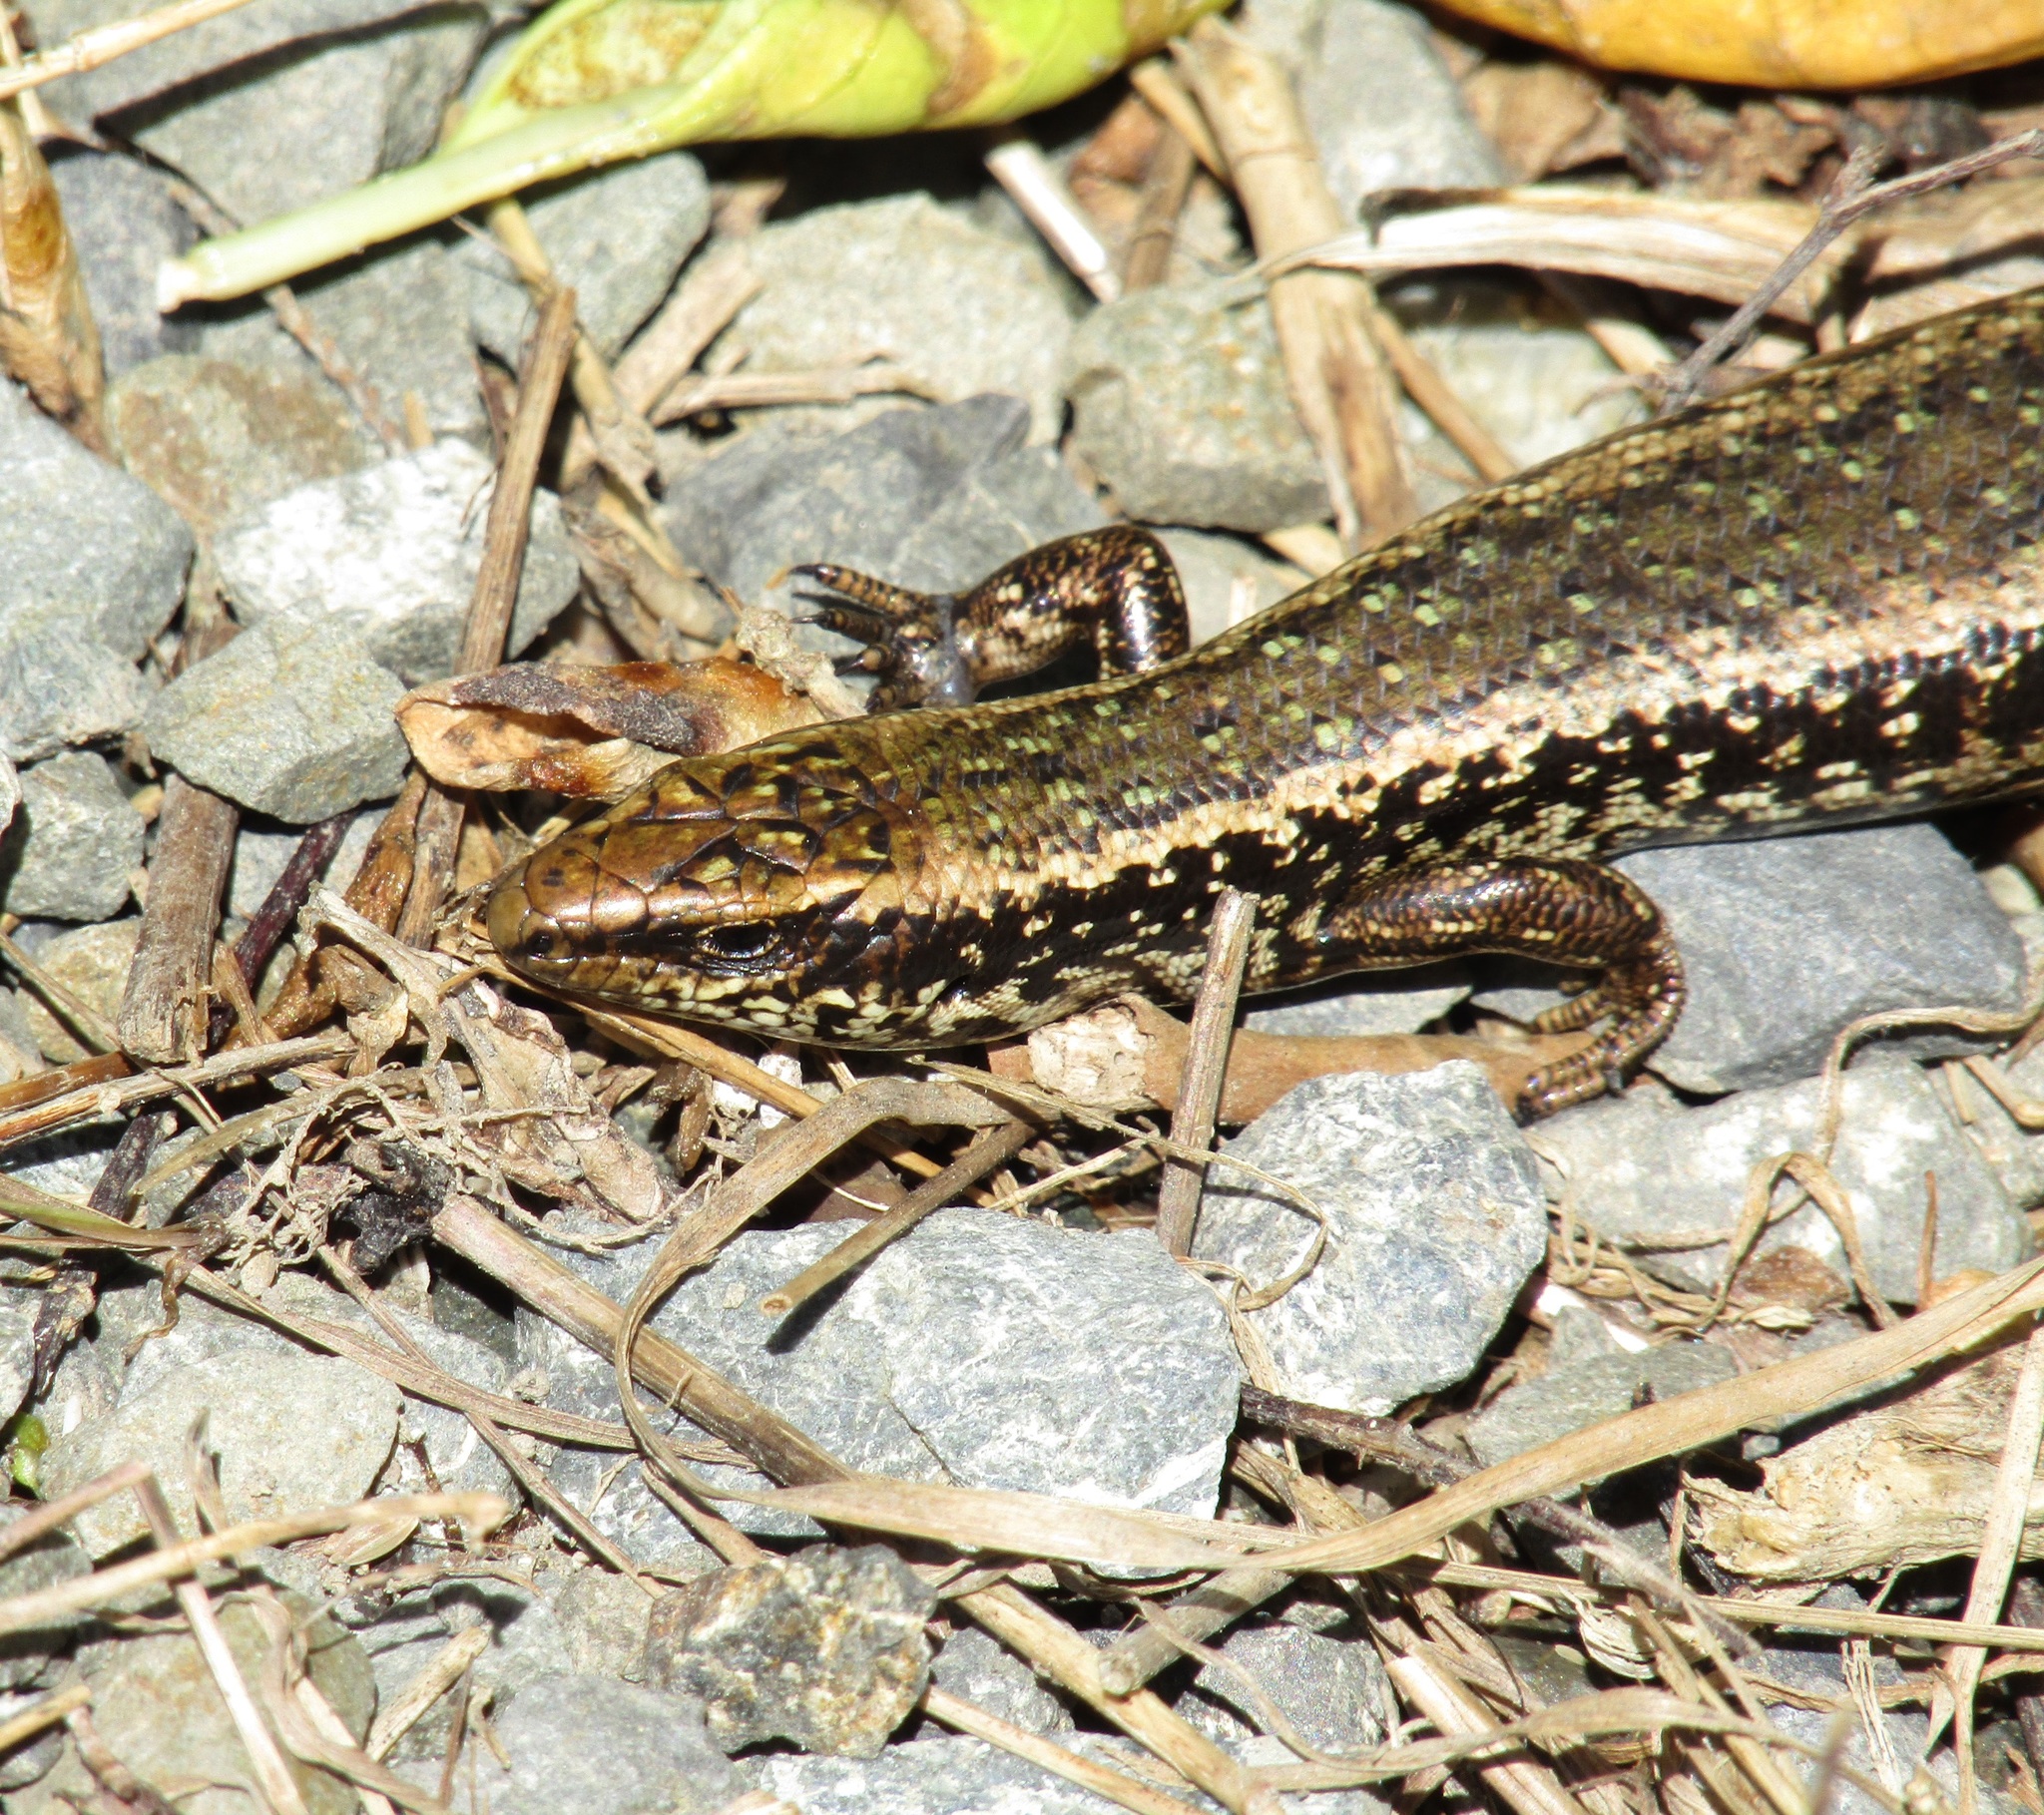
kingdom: Animalia
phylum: Chordata
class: Squamata
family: Scincidae
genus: Oligosoma
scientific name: Oligosoma kokowai
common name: Northern spotted skink
